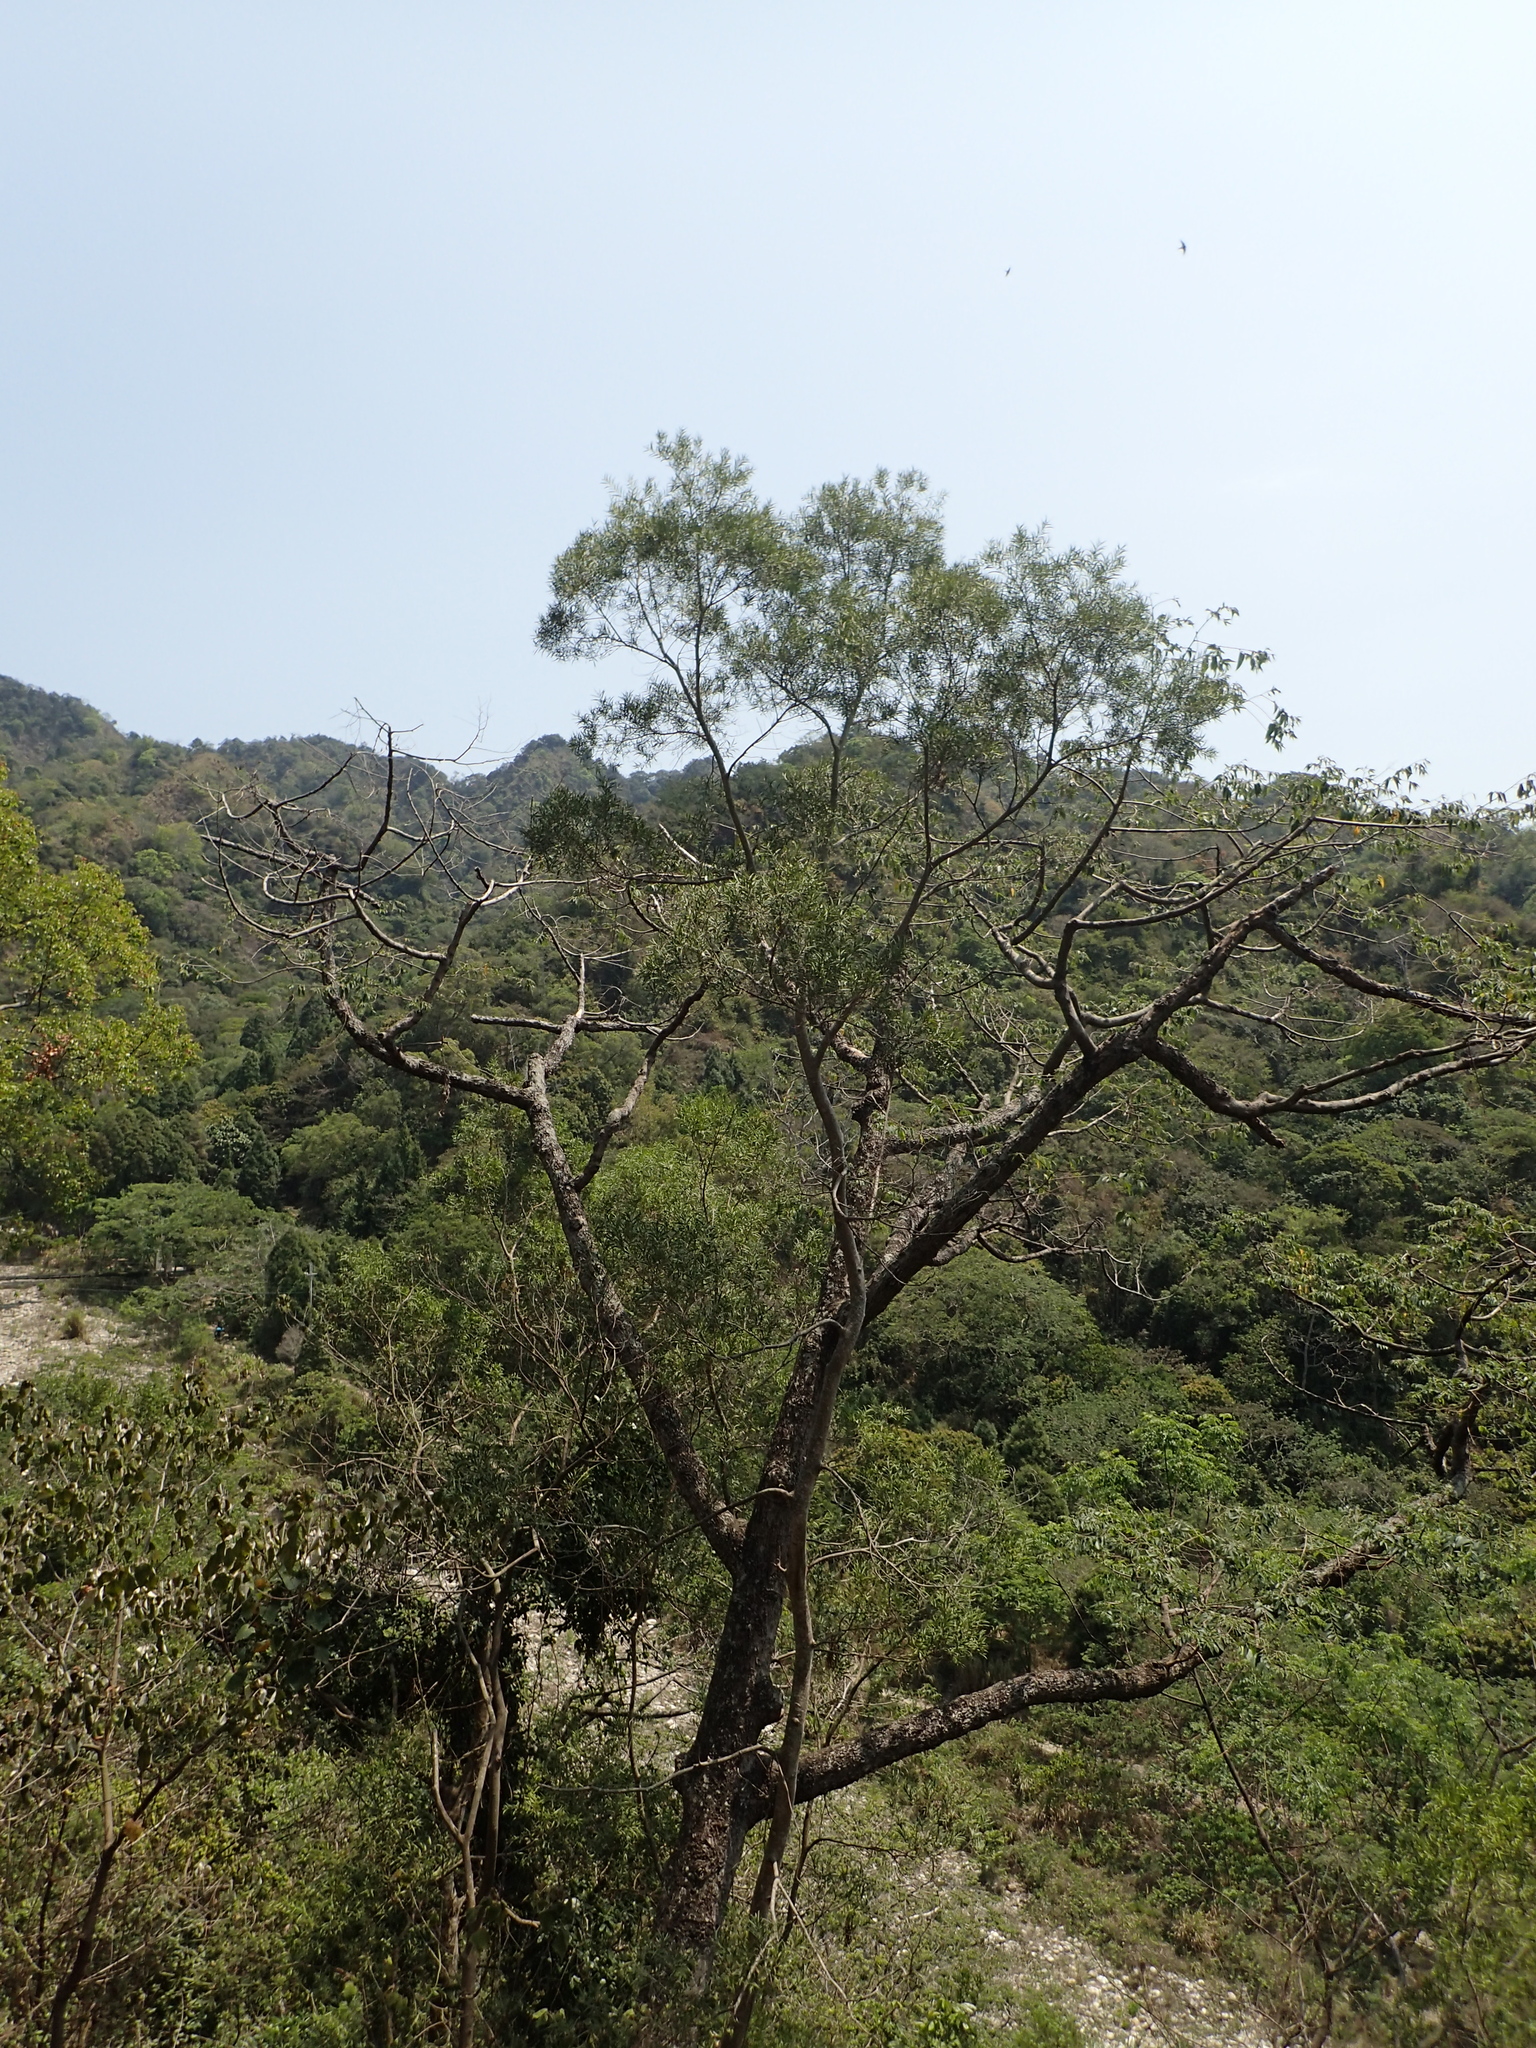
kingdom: Plantae
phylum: Tracheophyta
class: Magnoliopsida
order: Fabales
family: Fabaceae
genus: Acacia
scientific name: Acacia confusa
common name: Formosan koa
